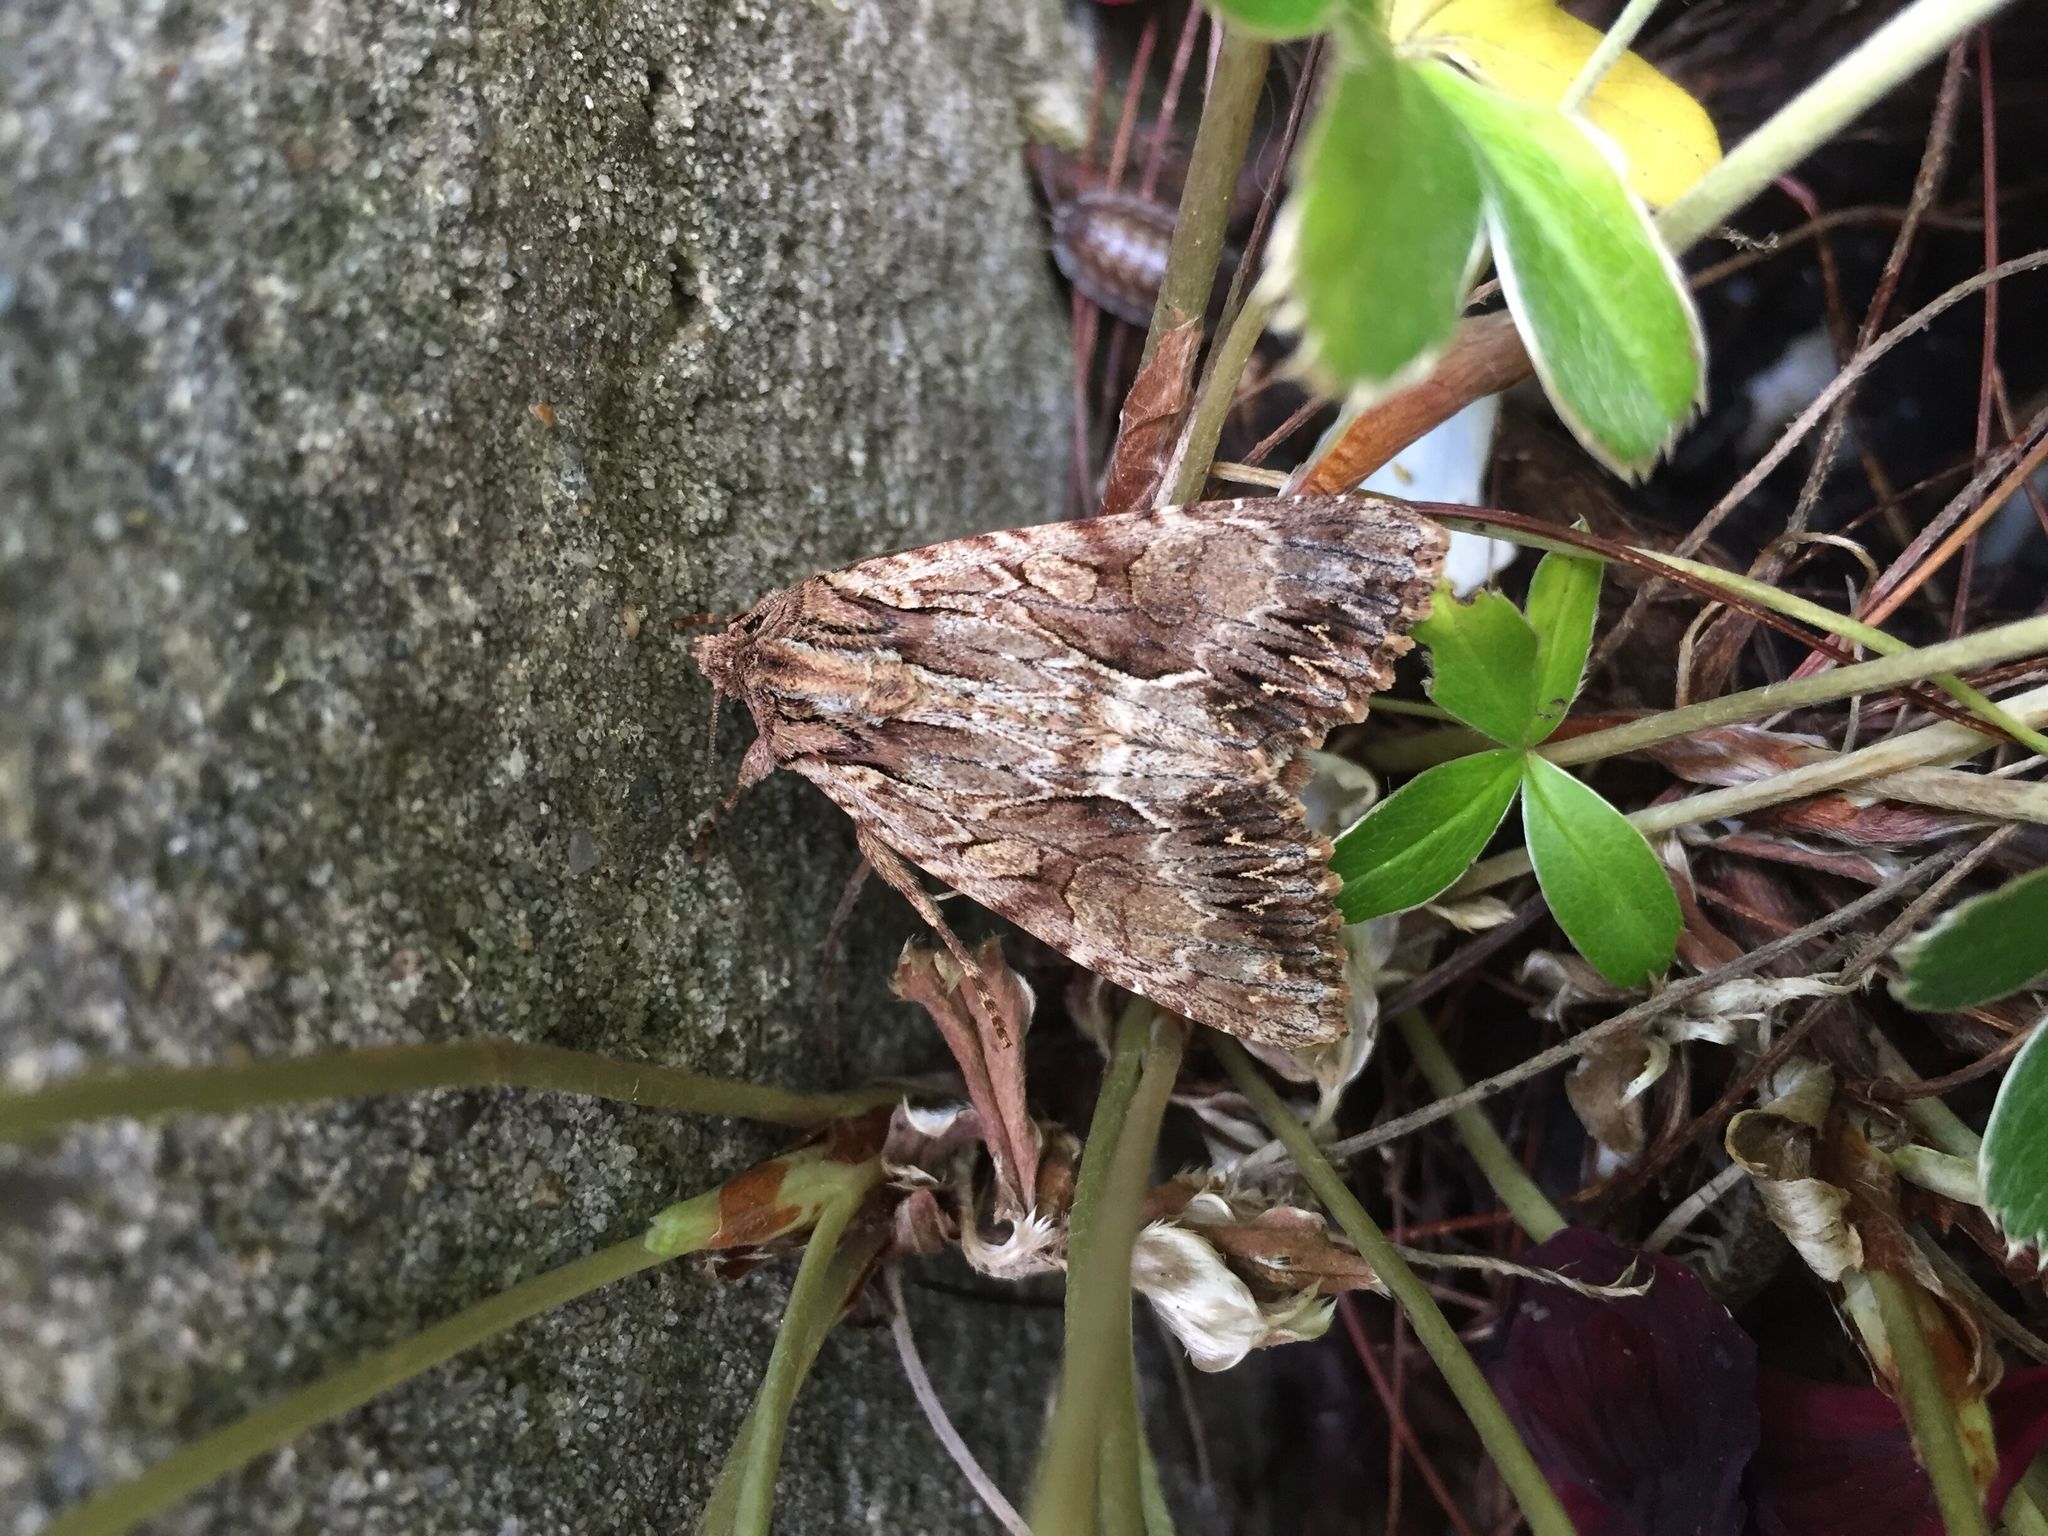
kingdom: Animalia
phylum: Arthropoda
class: Insecta
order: Lepidoptera
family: Noctuidae
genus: Apamea
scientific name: Apamea monoglypha
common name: Dark arches
